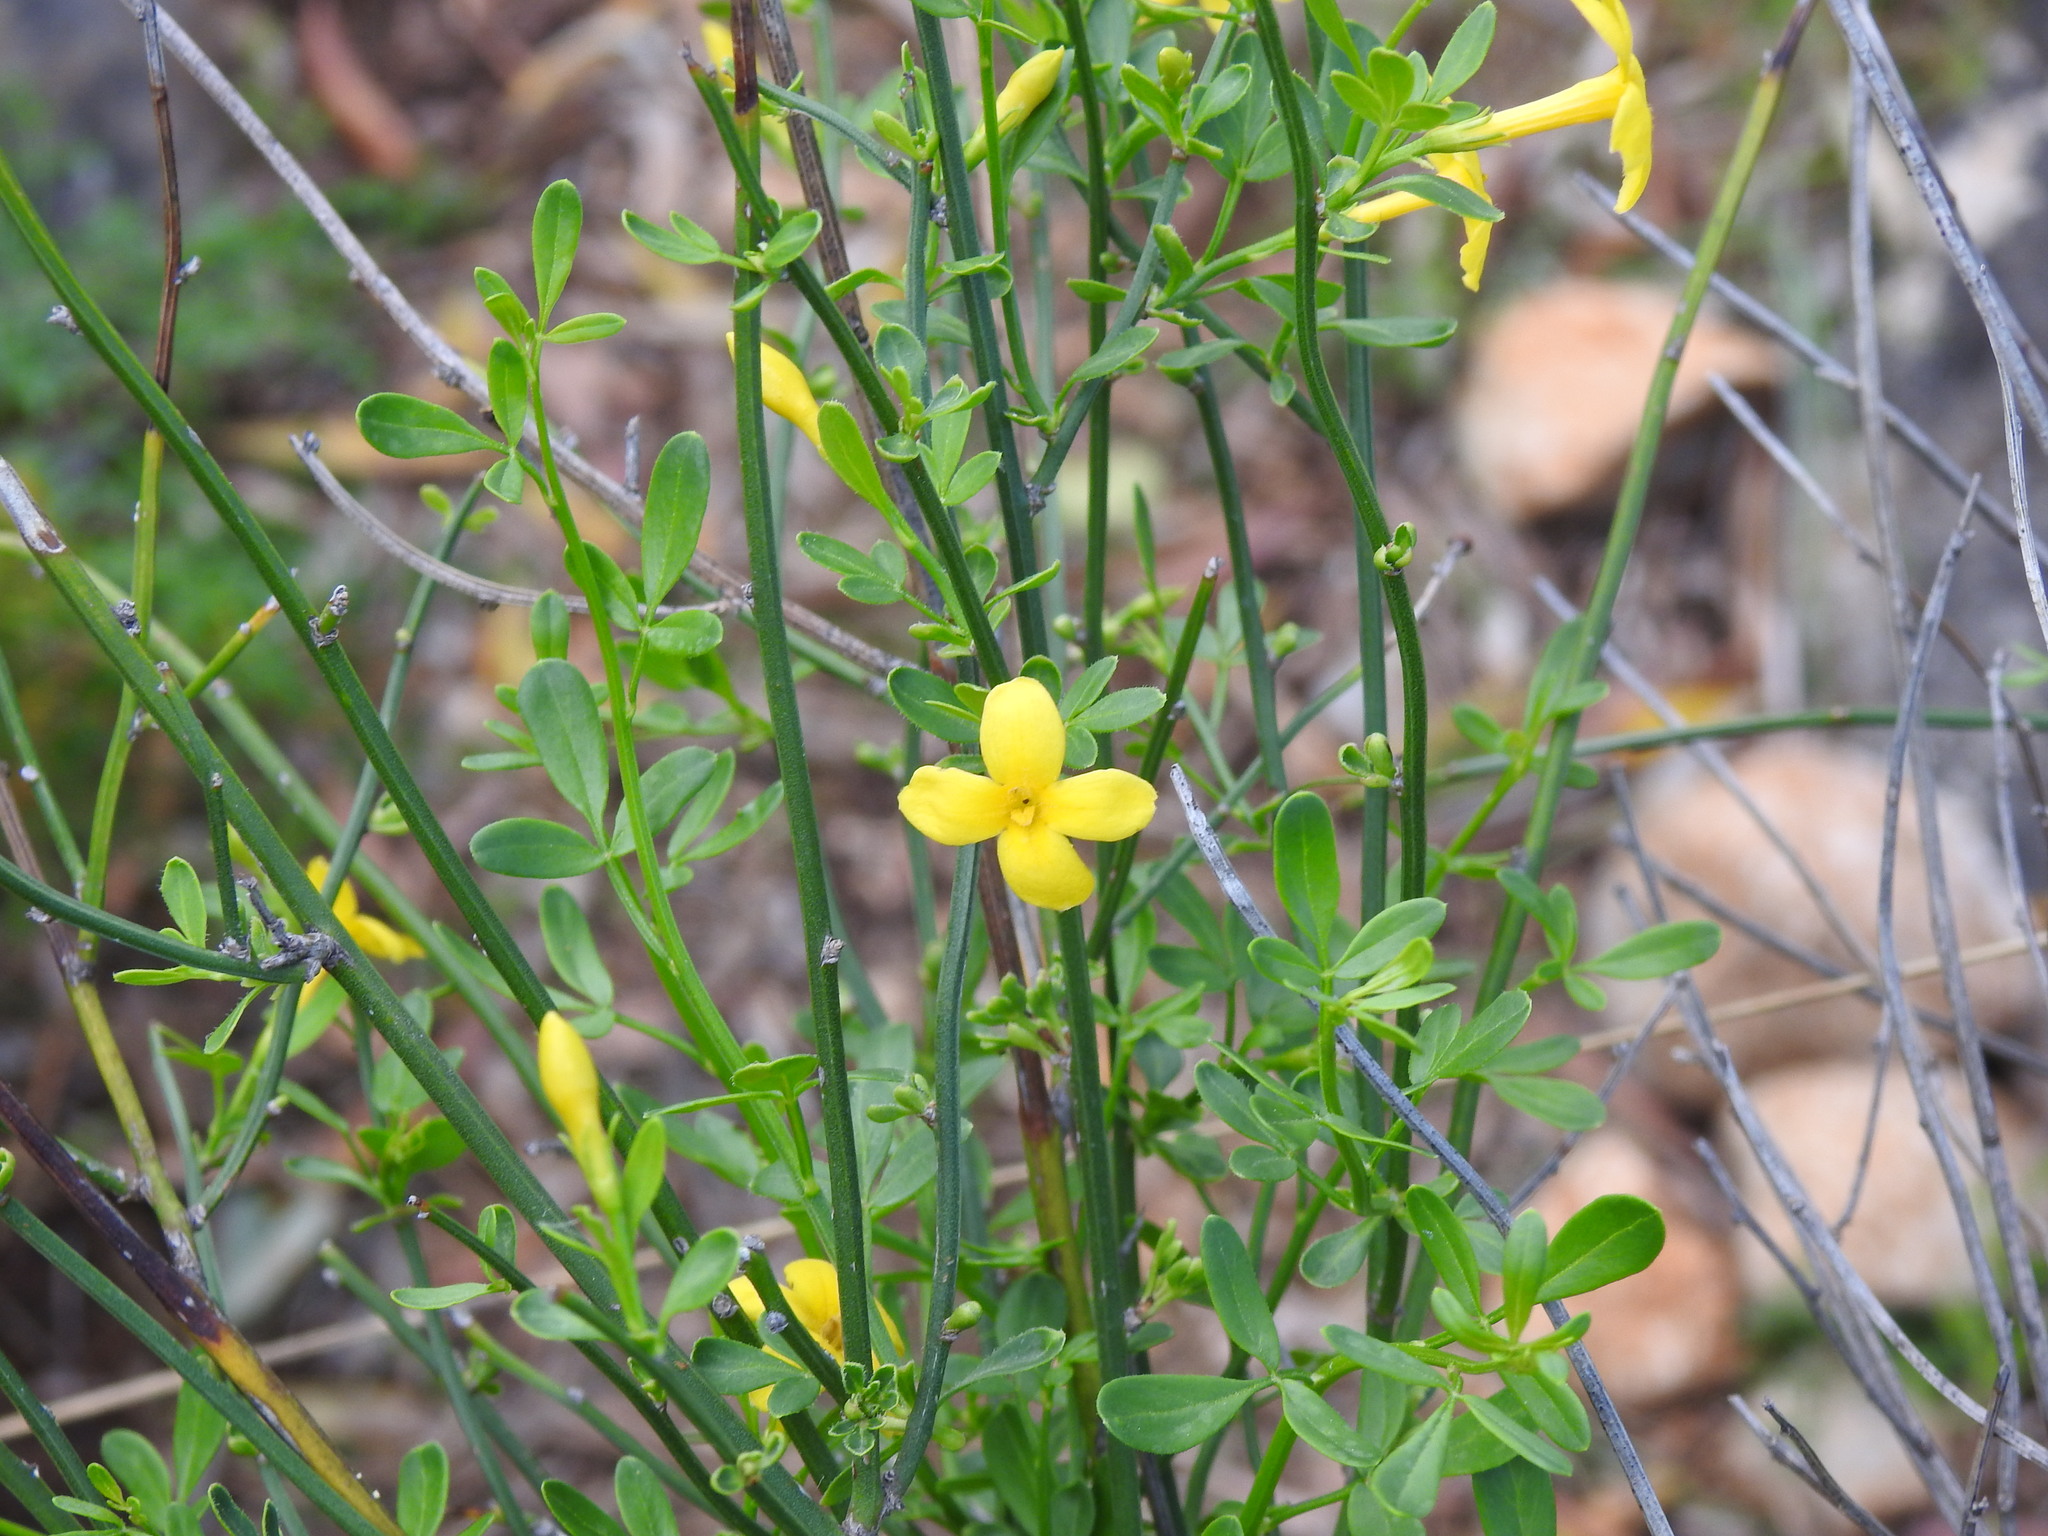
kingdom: Plantae
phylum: Tracheophyta
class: Magnoliopsida
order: Lamiales
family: Oleaceae
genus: Chrysojasminum
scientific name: Chrysojasminum fruticans
